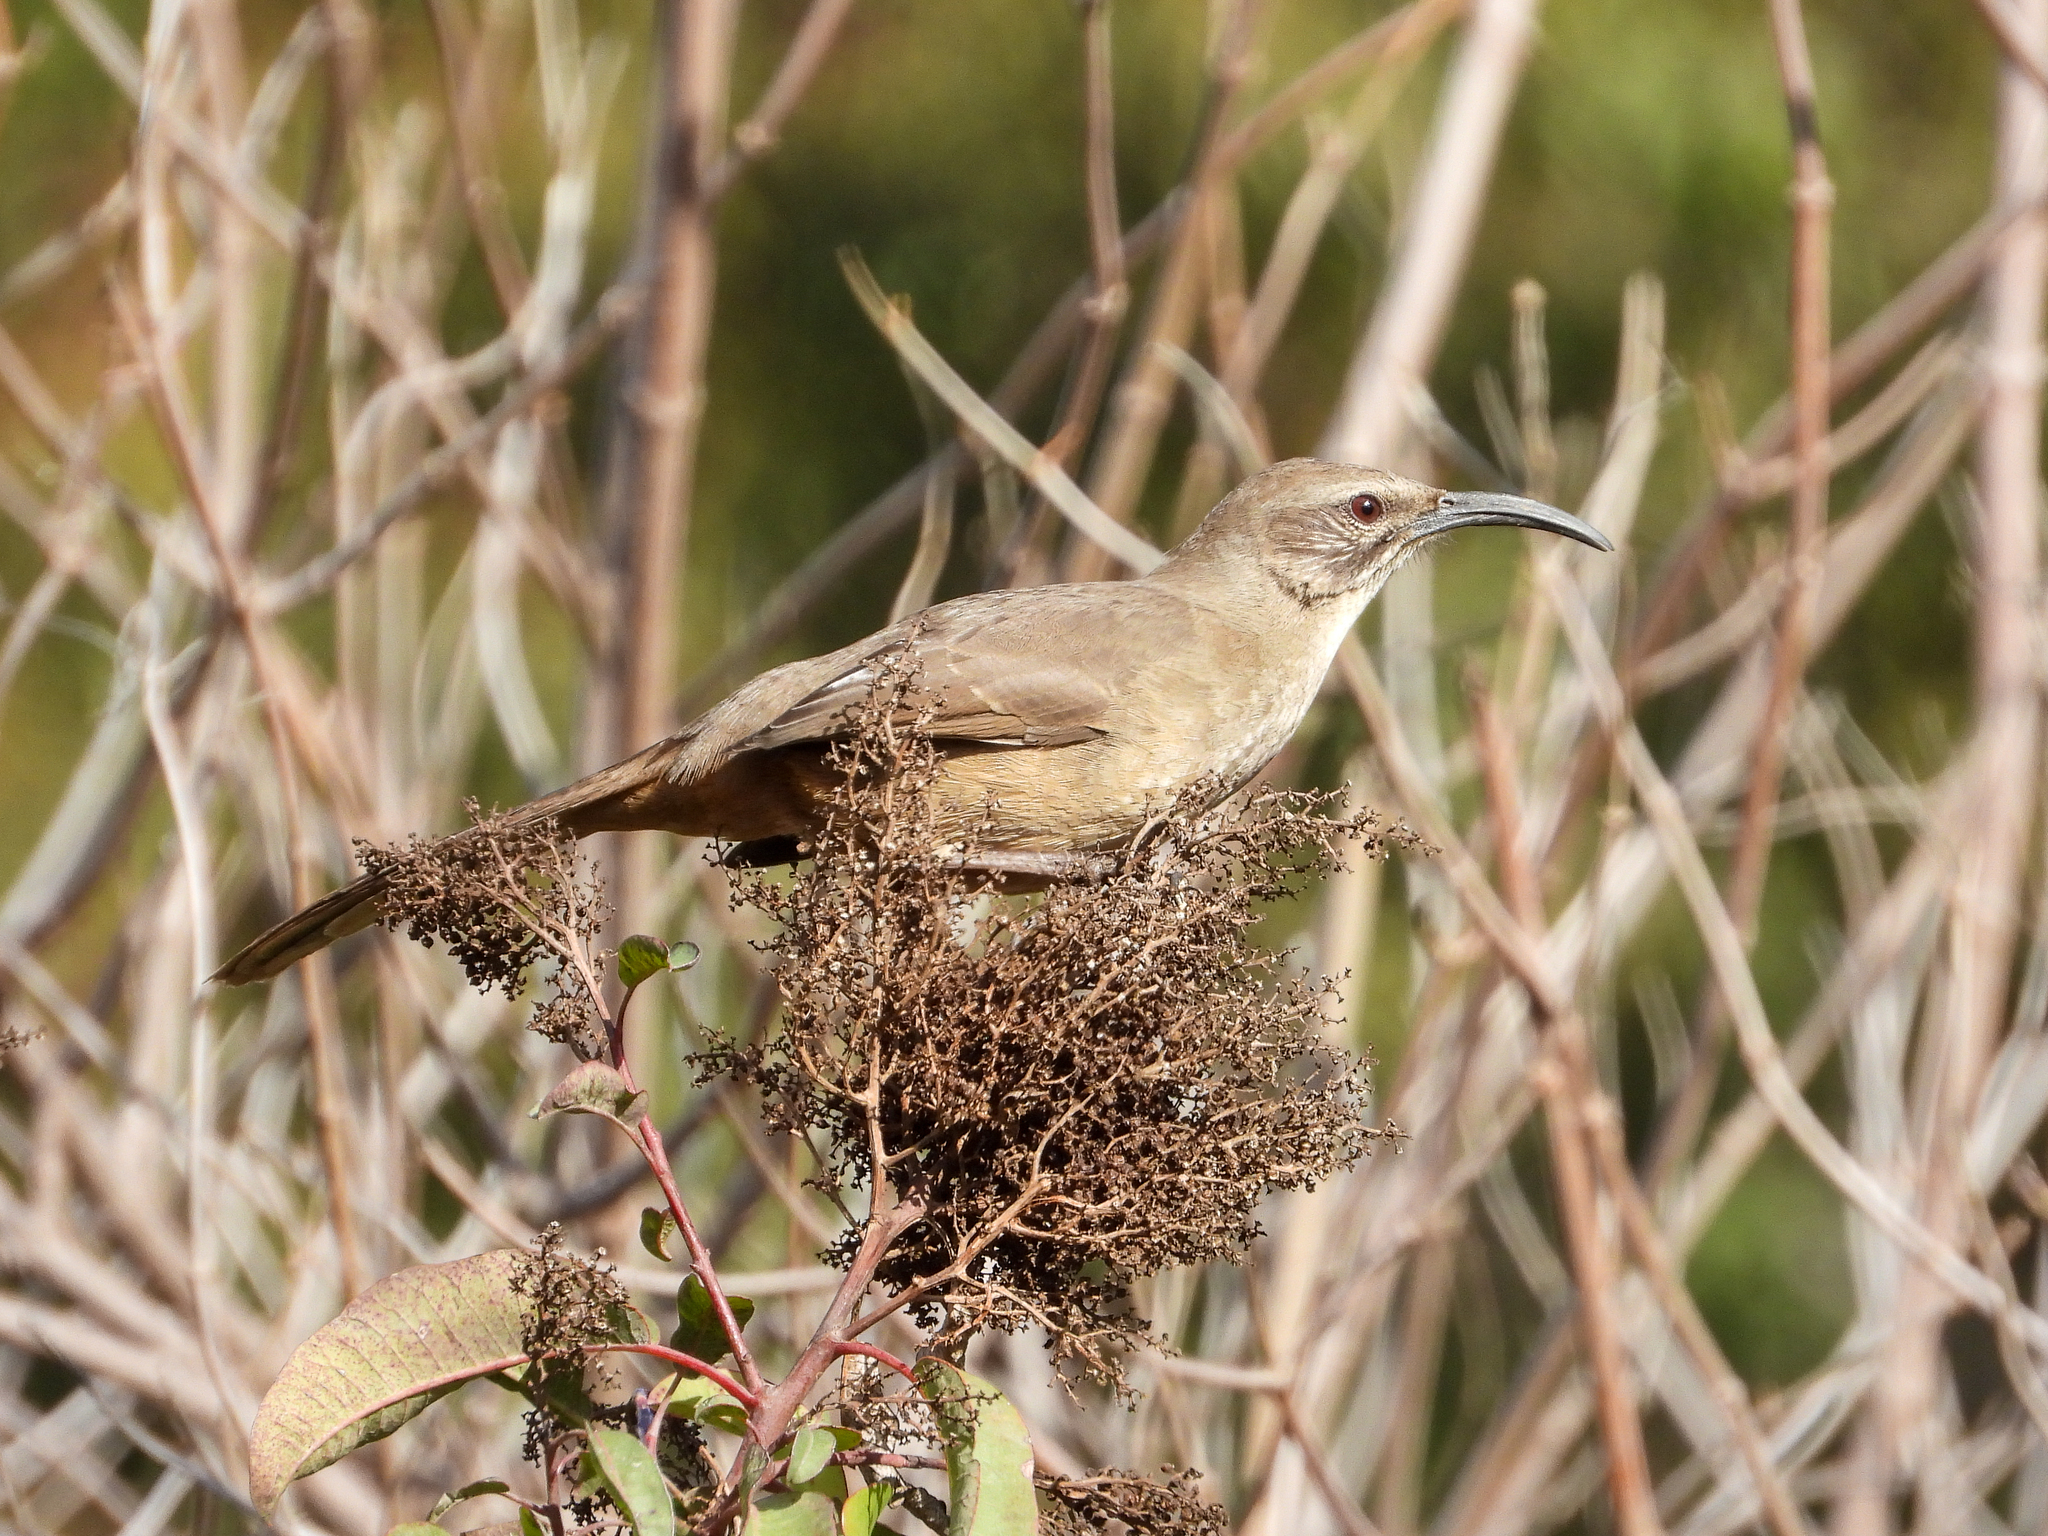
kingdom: Animalia
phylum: Chordata
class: Aves
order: Passeriformes
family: Mimidae
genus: Toxostoma
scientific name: Toxostoma redivivum
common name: California thrasher
